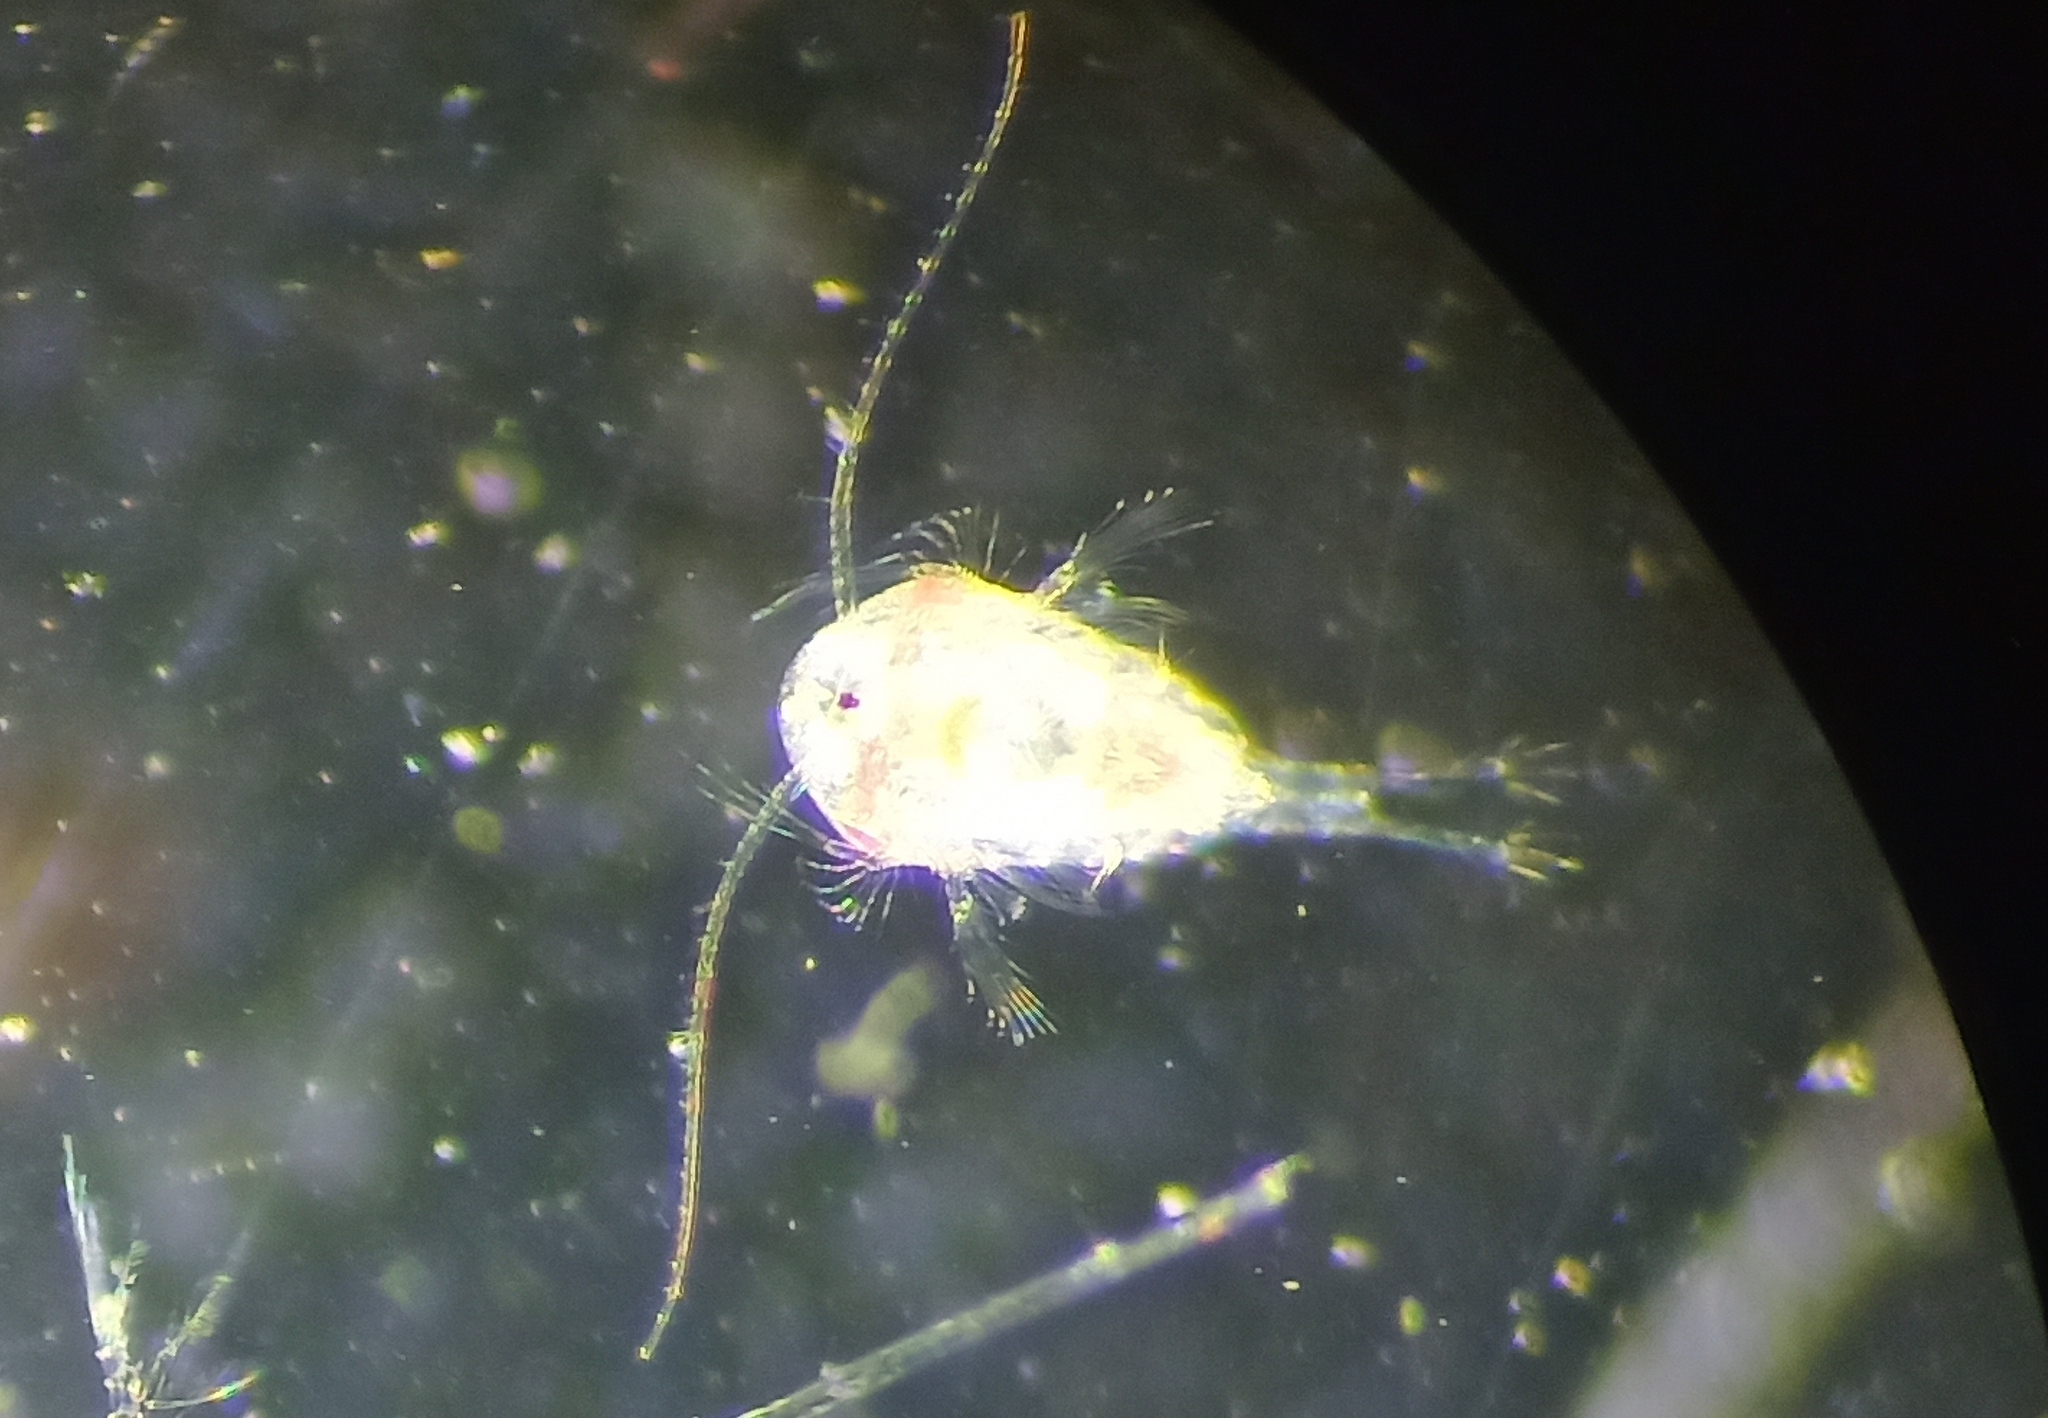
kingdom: Animalia
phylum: Arthropoda
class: Copepoda
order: Calanoida
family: Temoridae
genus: Temora
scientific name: Temora turbinata
